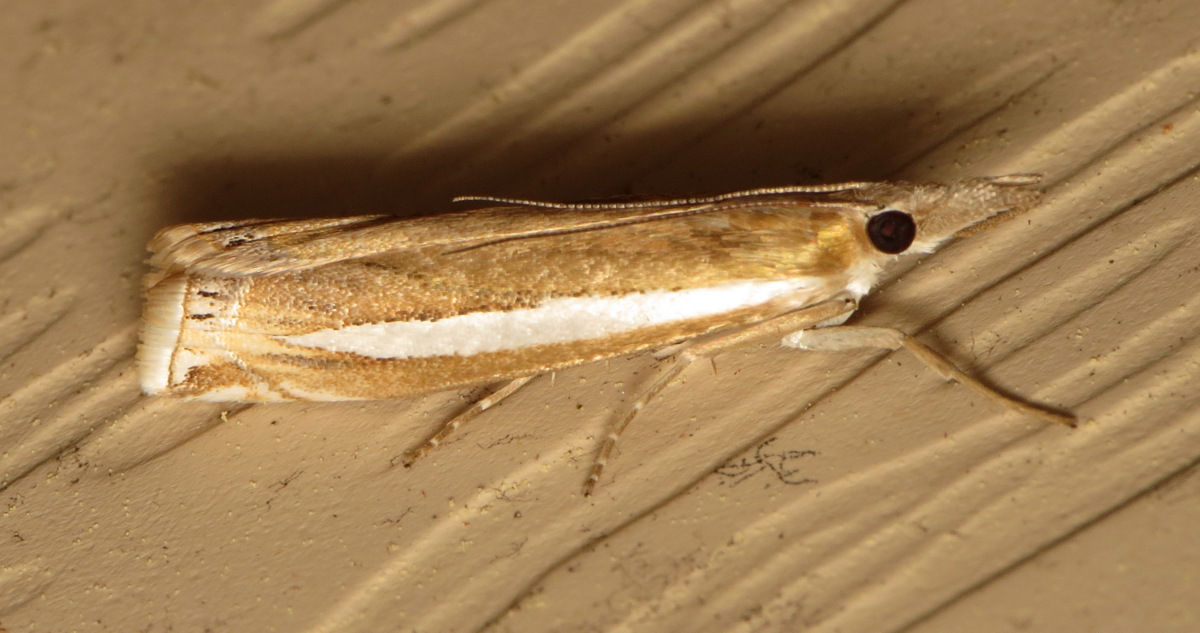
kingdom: Animalia
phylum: Arthropoda
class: Insecta
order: Lepidoptera
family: Crambidae
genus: Crambus
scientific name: Crambus praefectellus
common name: Common grass-veneer
